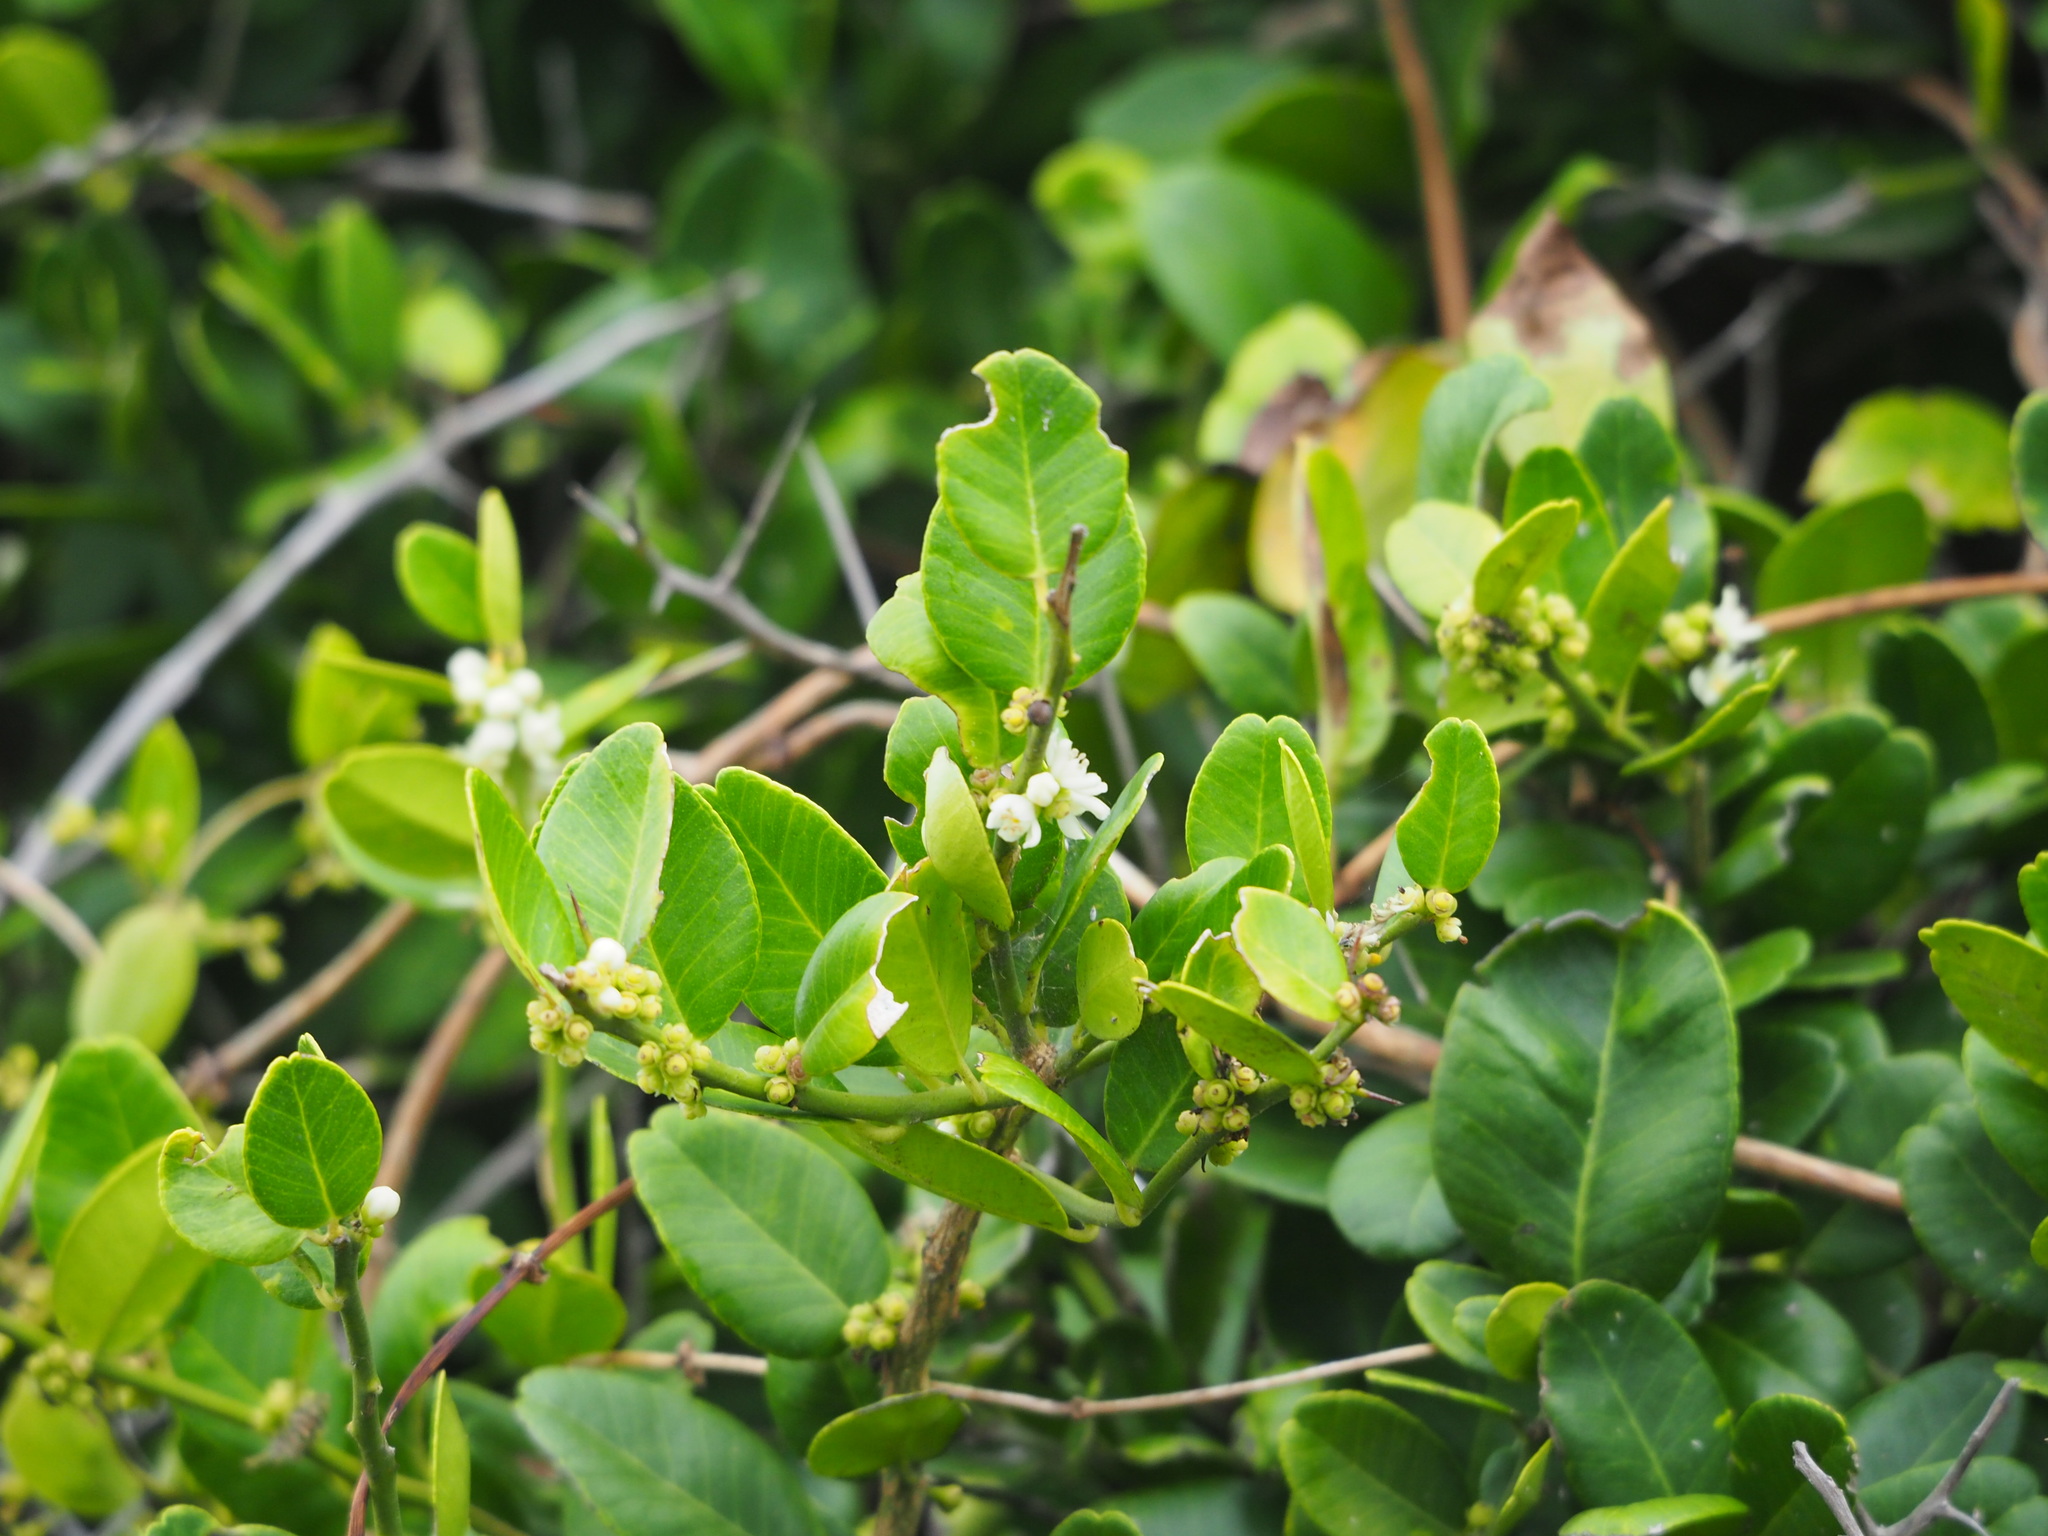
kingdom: Plantae
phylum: Tracheophyta
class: Magnoliopsida
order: Sapindales
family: Rutaceae
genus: Atalantia
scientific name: Atalantia buxifolia
